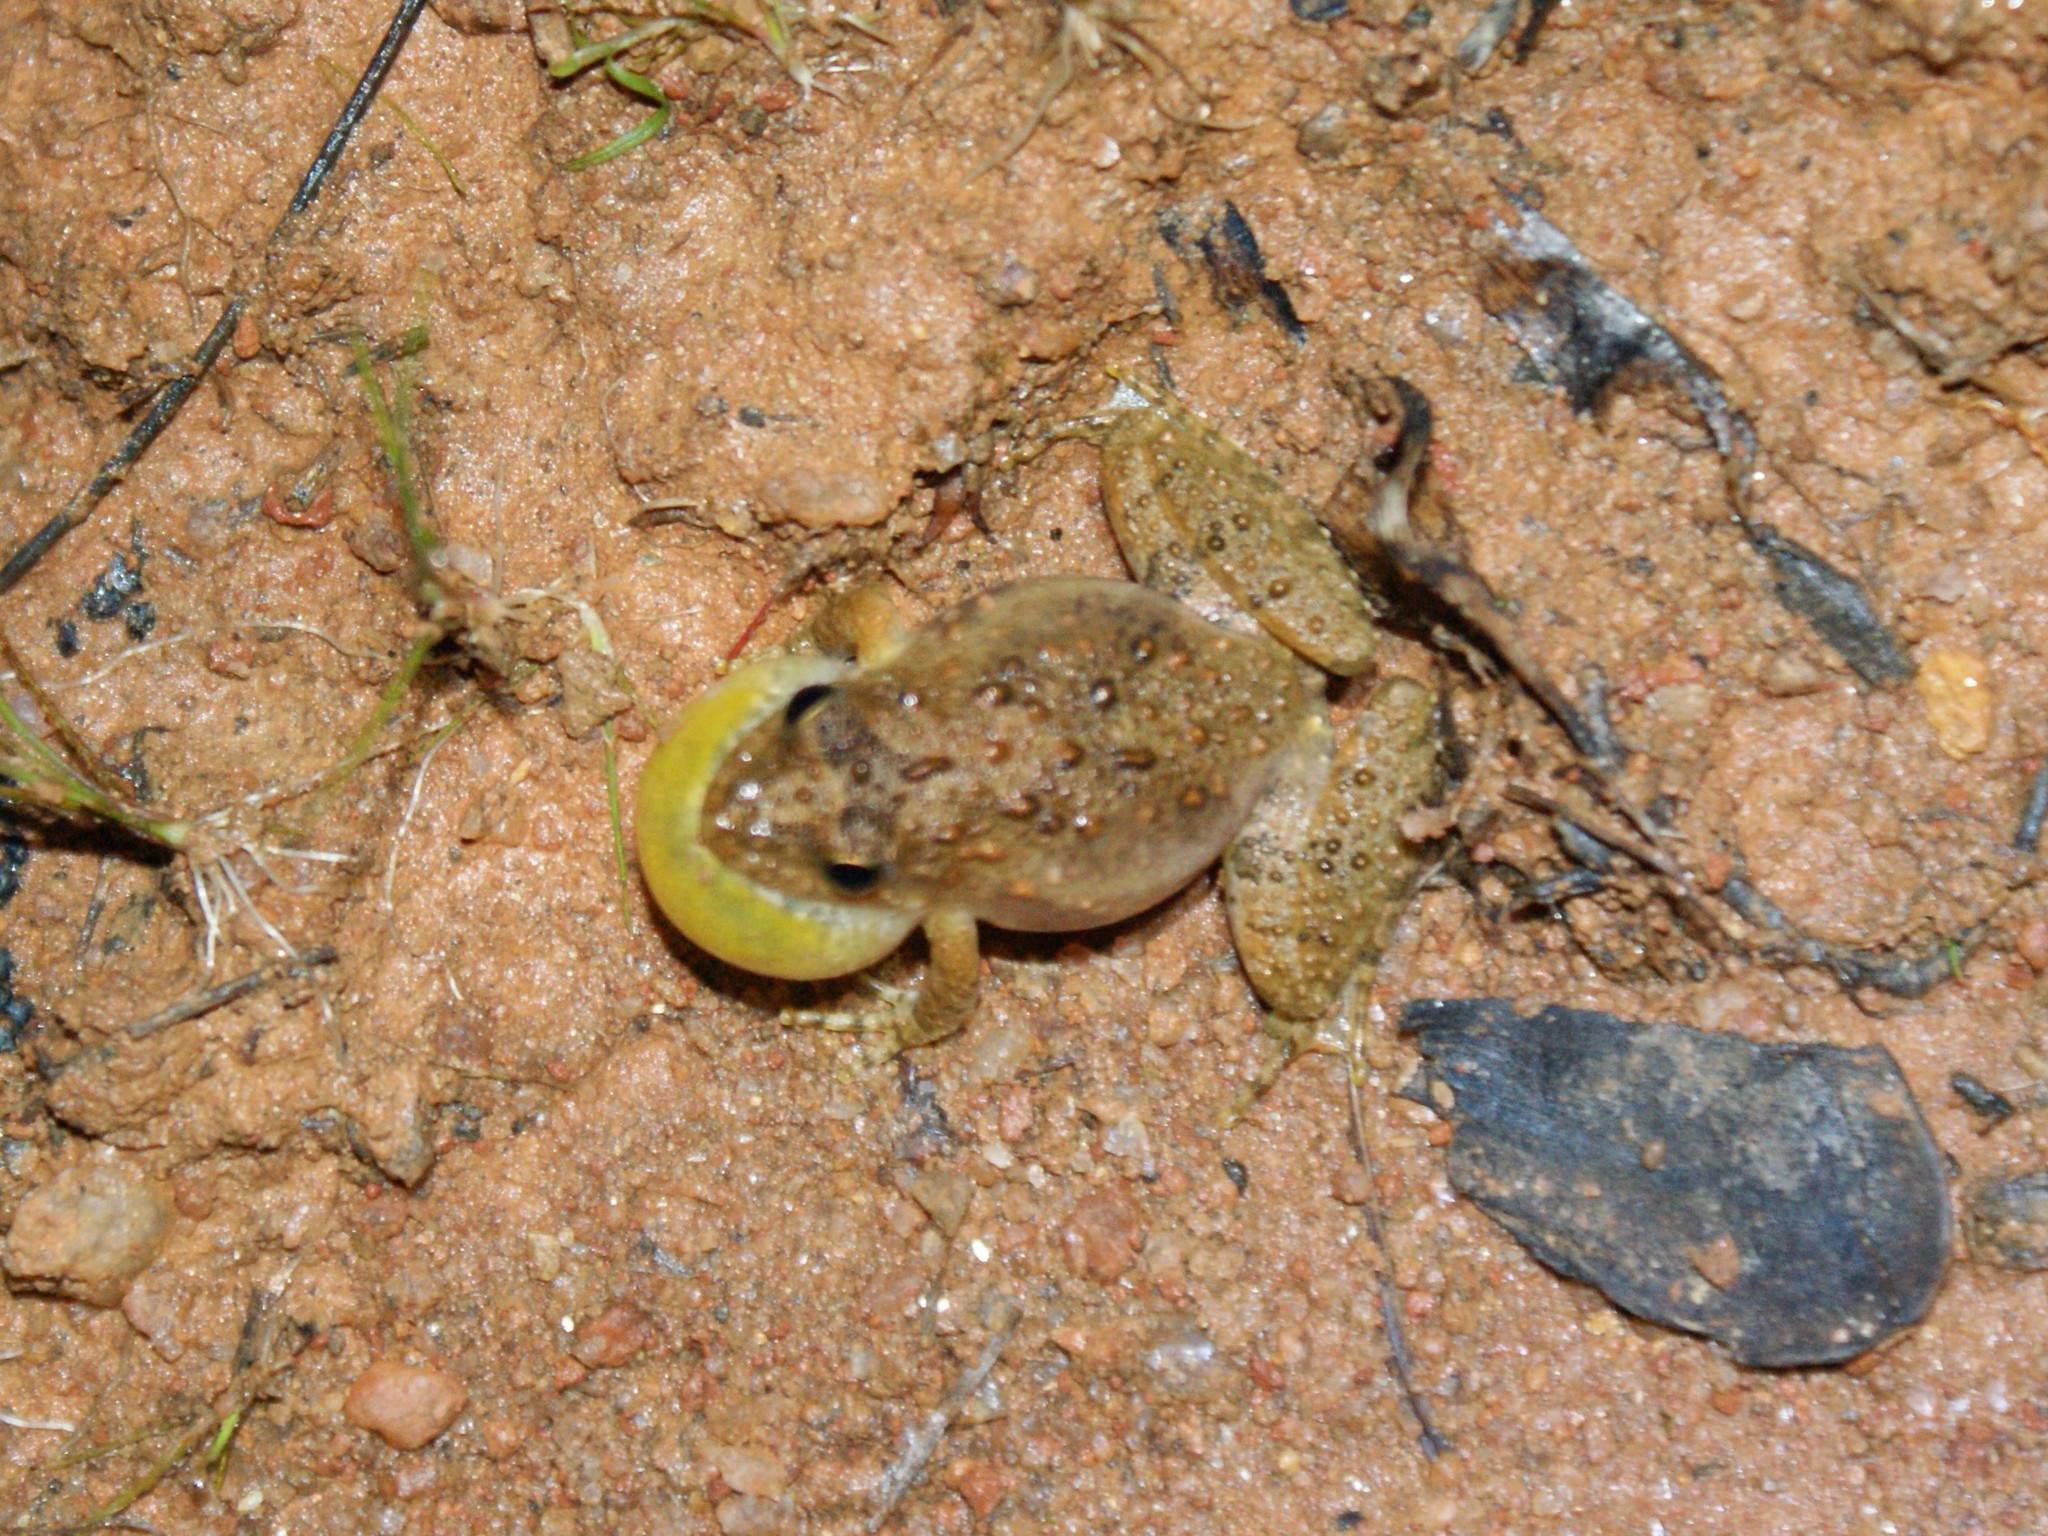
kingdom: Animalia
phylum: Chordata
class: Amphibia
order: Anura
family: Hylidae
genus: Acris
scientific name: Acris crepitans
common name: Northern cricket frog
